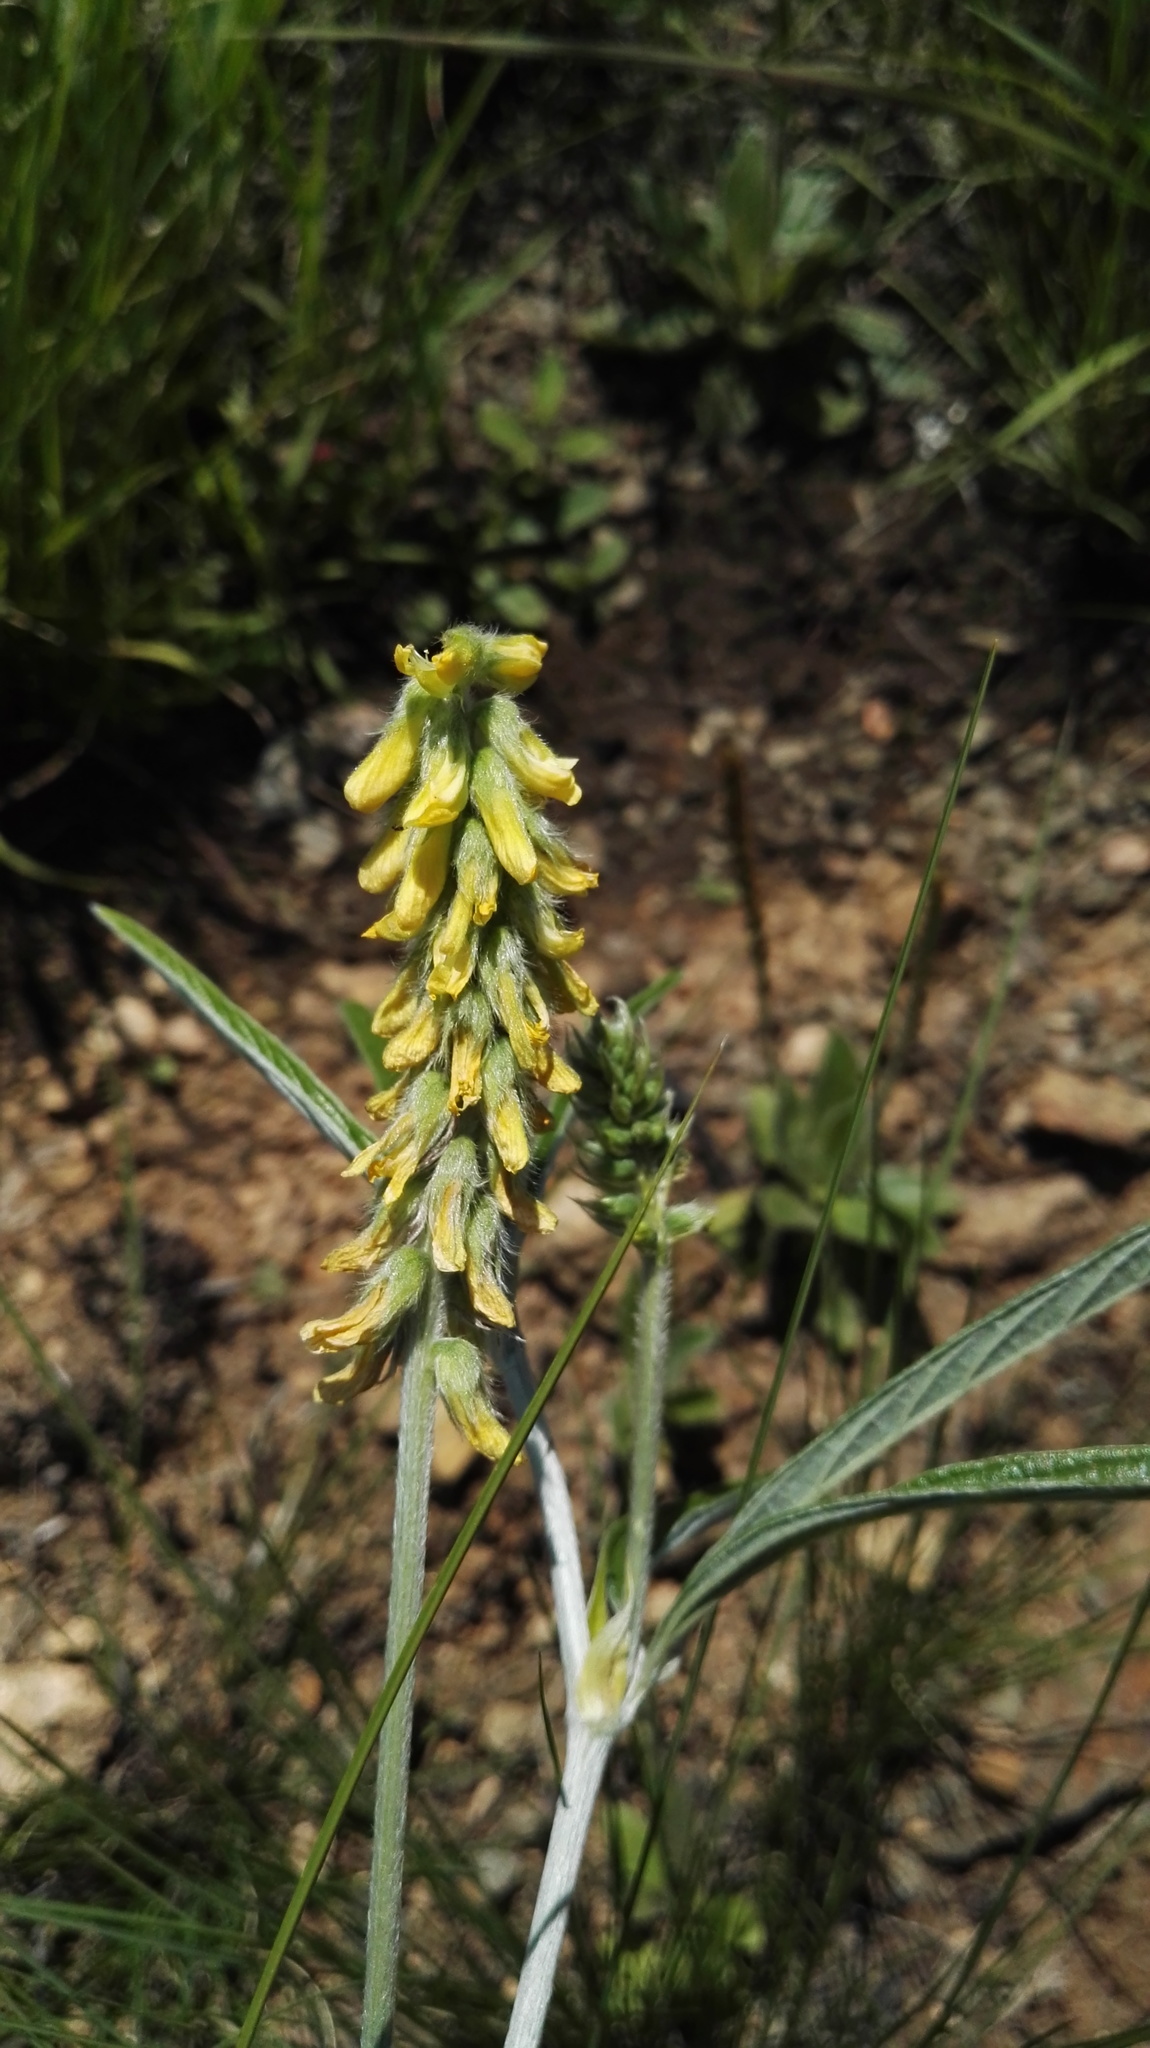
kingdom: Plantae
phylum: Tracheophyta
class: Magnoliopsida
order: Fabales
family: Fabaceae
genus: Eriosema
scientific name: Eriosema salignum
